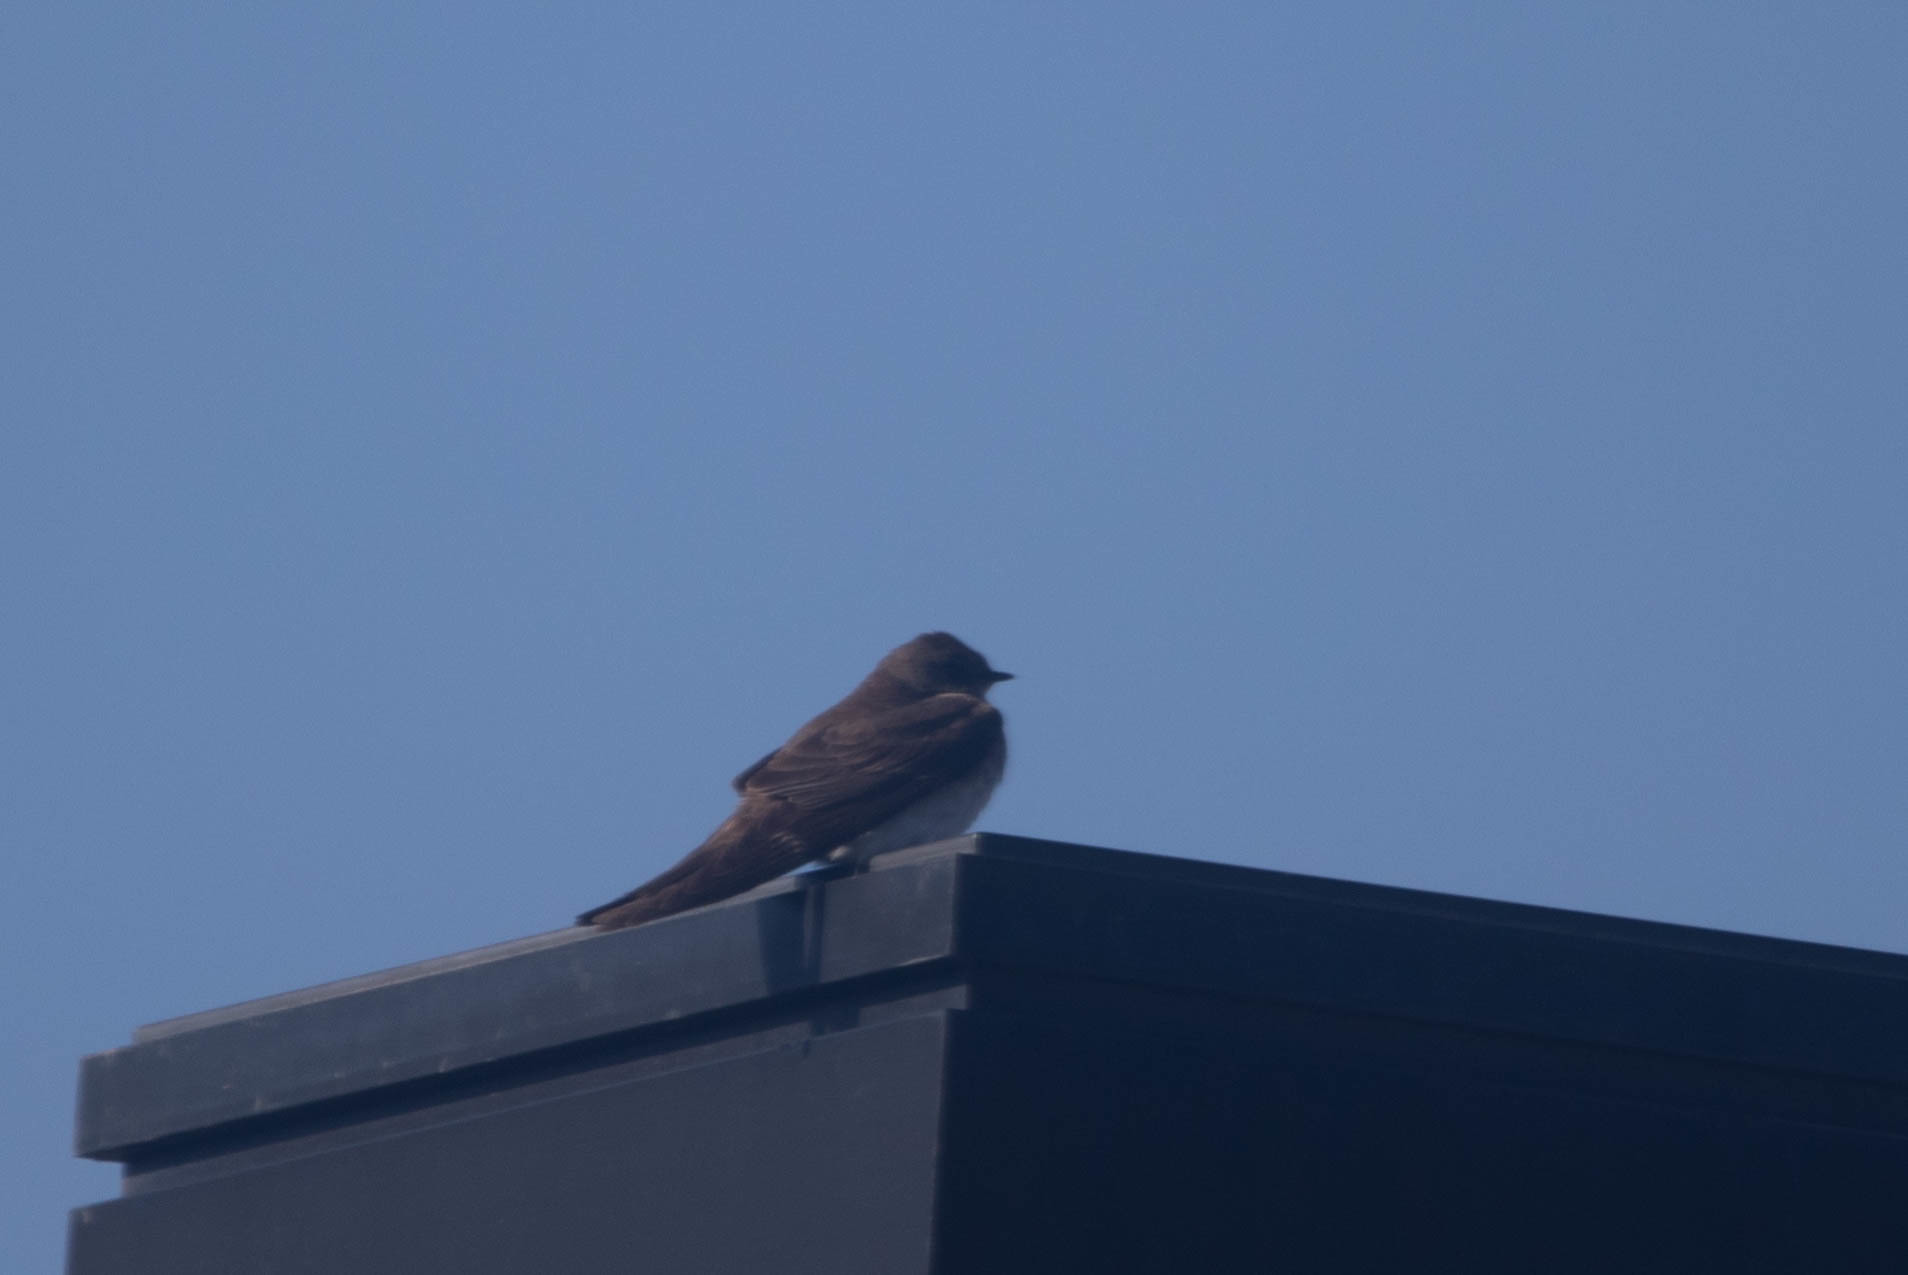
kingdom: Animalia
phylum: Chordata
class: Aves
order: Passeriformes
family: Hirundinidae
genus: Stelgidopteryx
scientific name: Stelgidopteryx serripennis
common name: Northern rough-winged swallow
